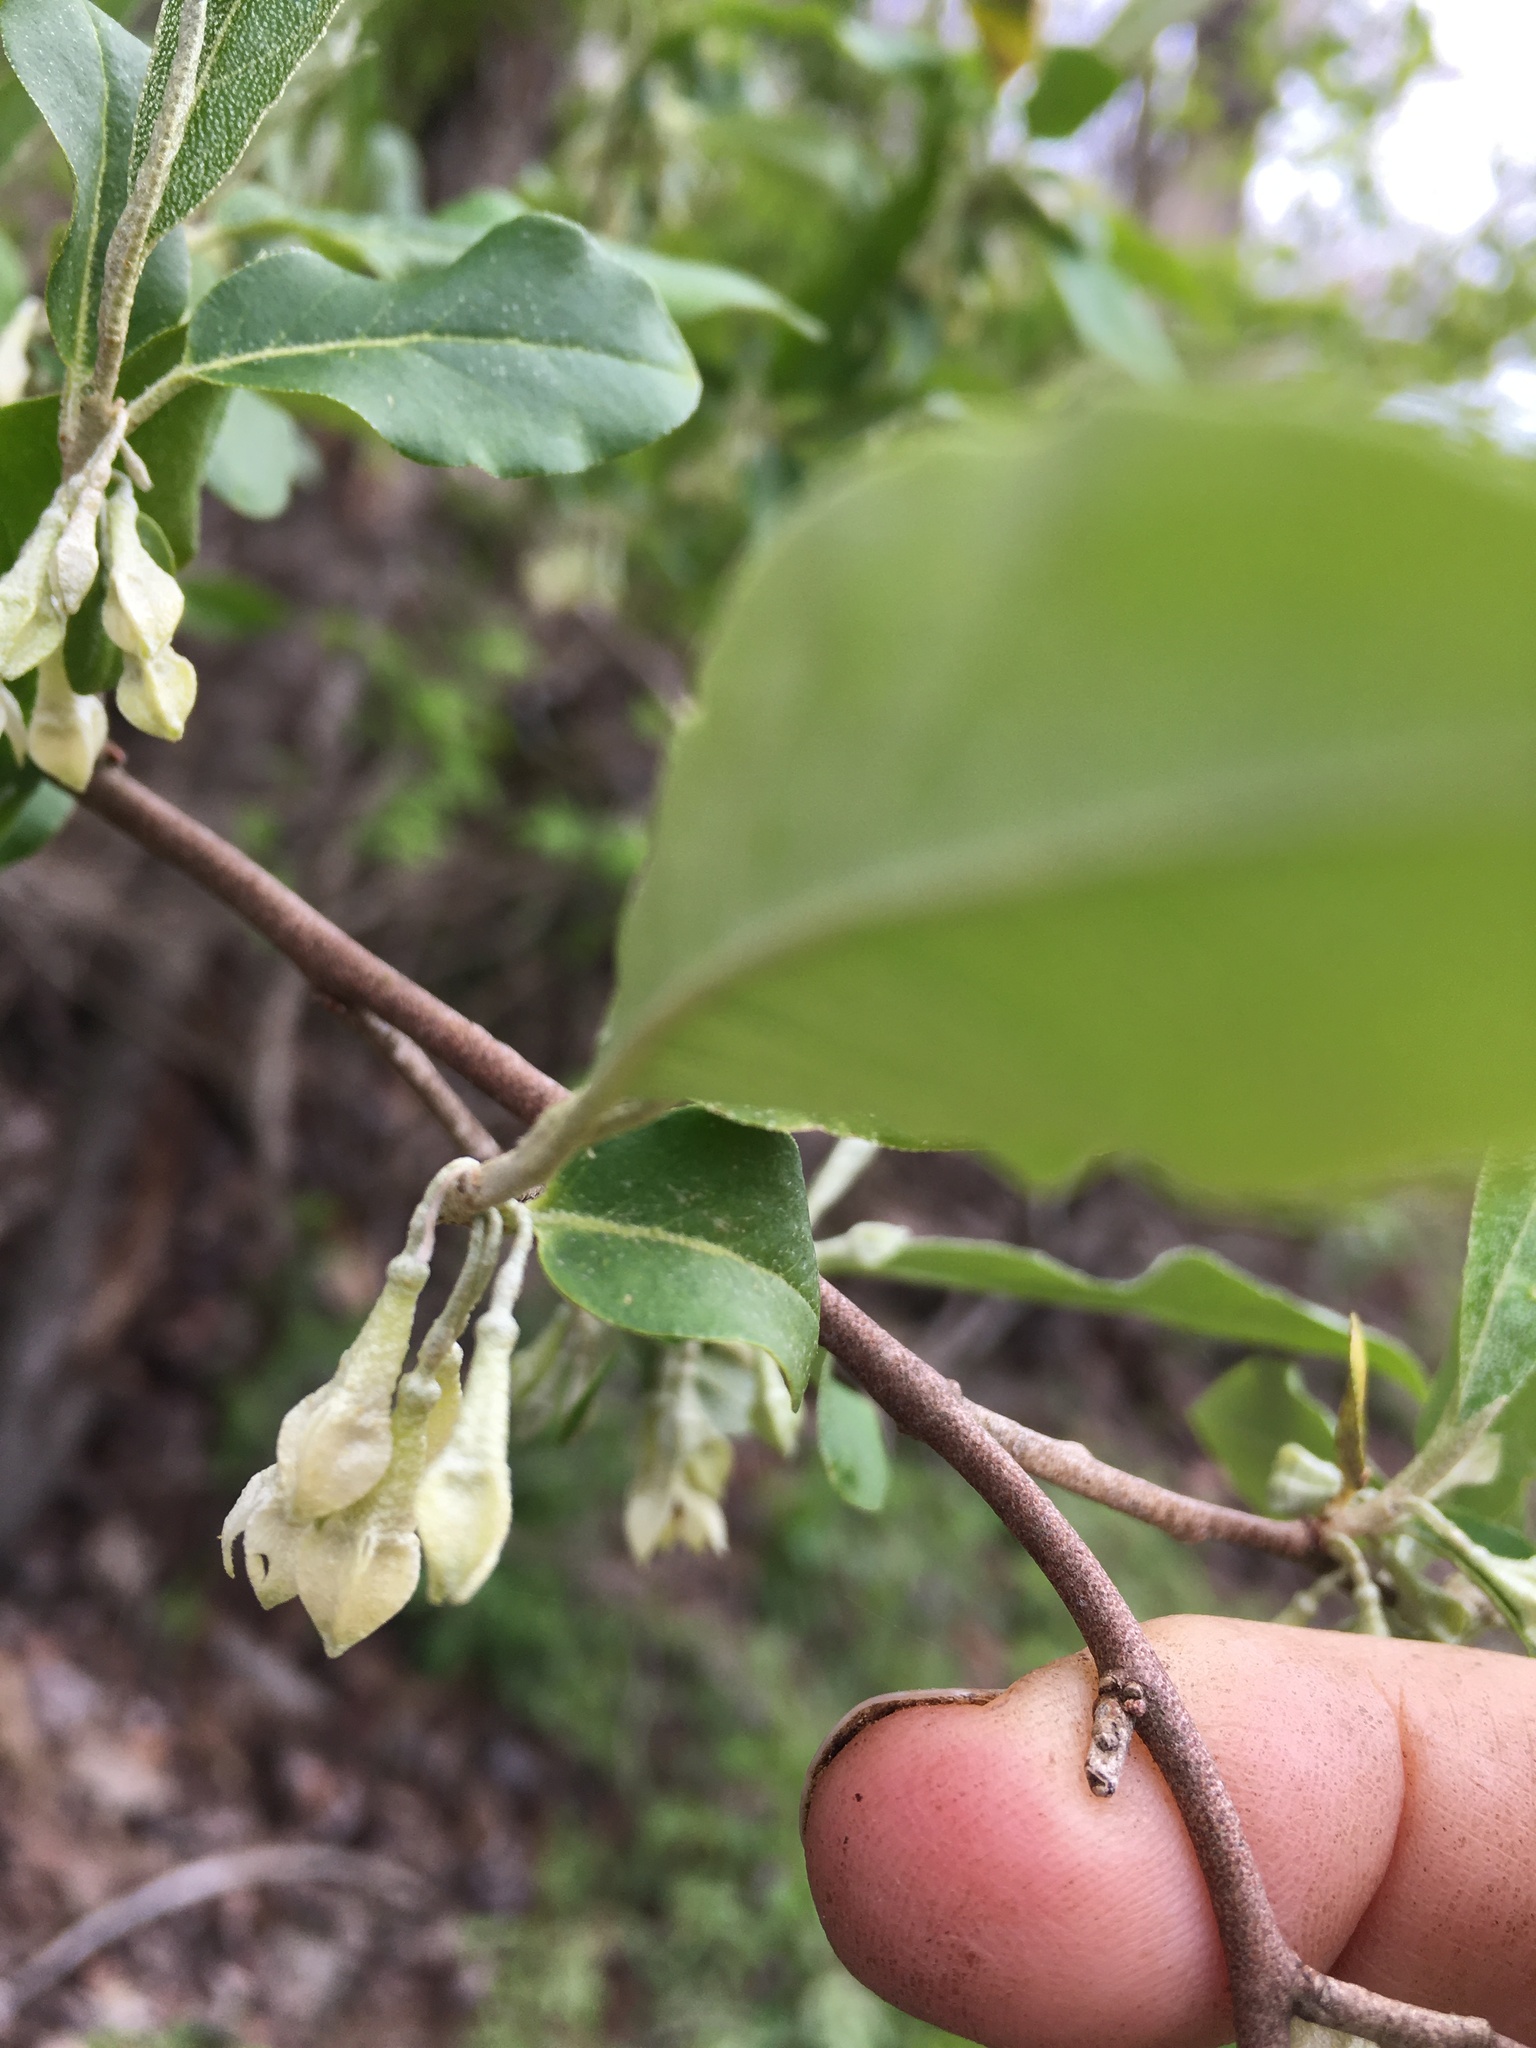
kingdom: Plantae
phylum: Tracheophyta
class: Magnoliopsida
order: Rosales
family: Elaeagnaceae
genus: Elaeagnus
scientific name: Elaeagnus umbellata
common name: Autumn olive
